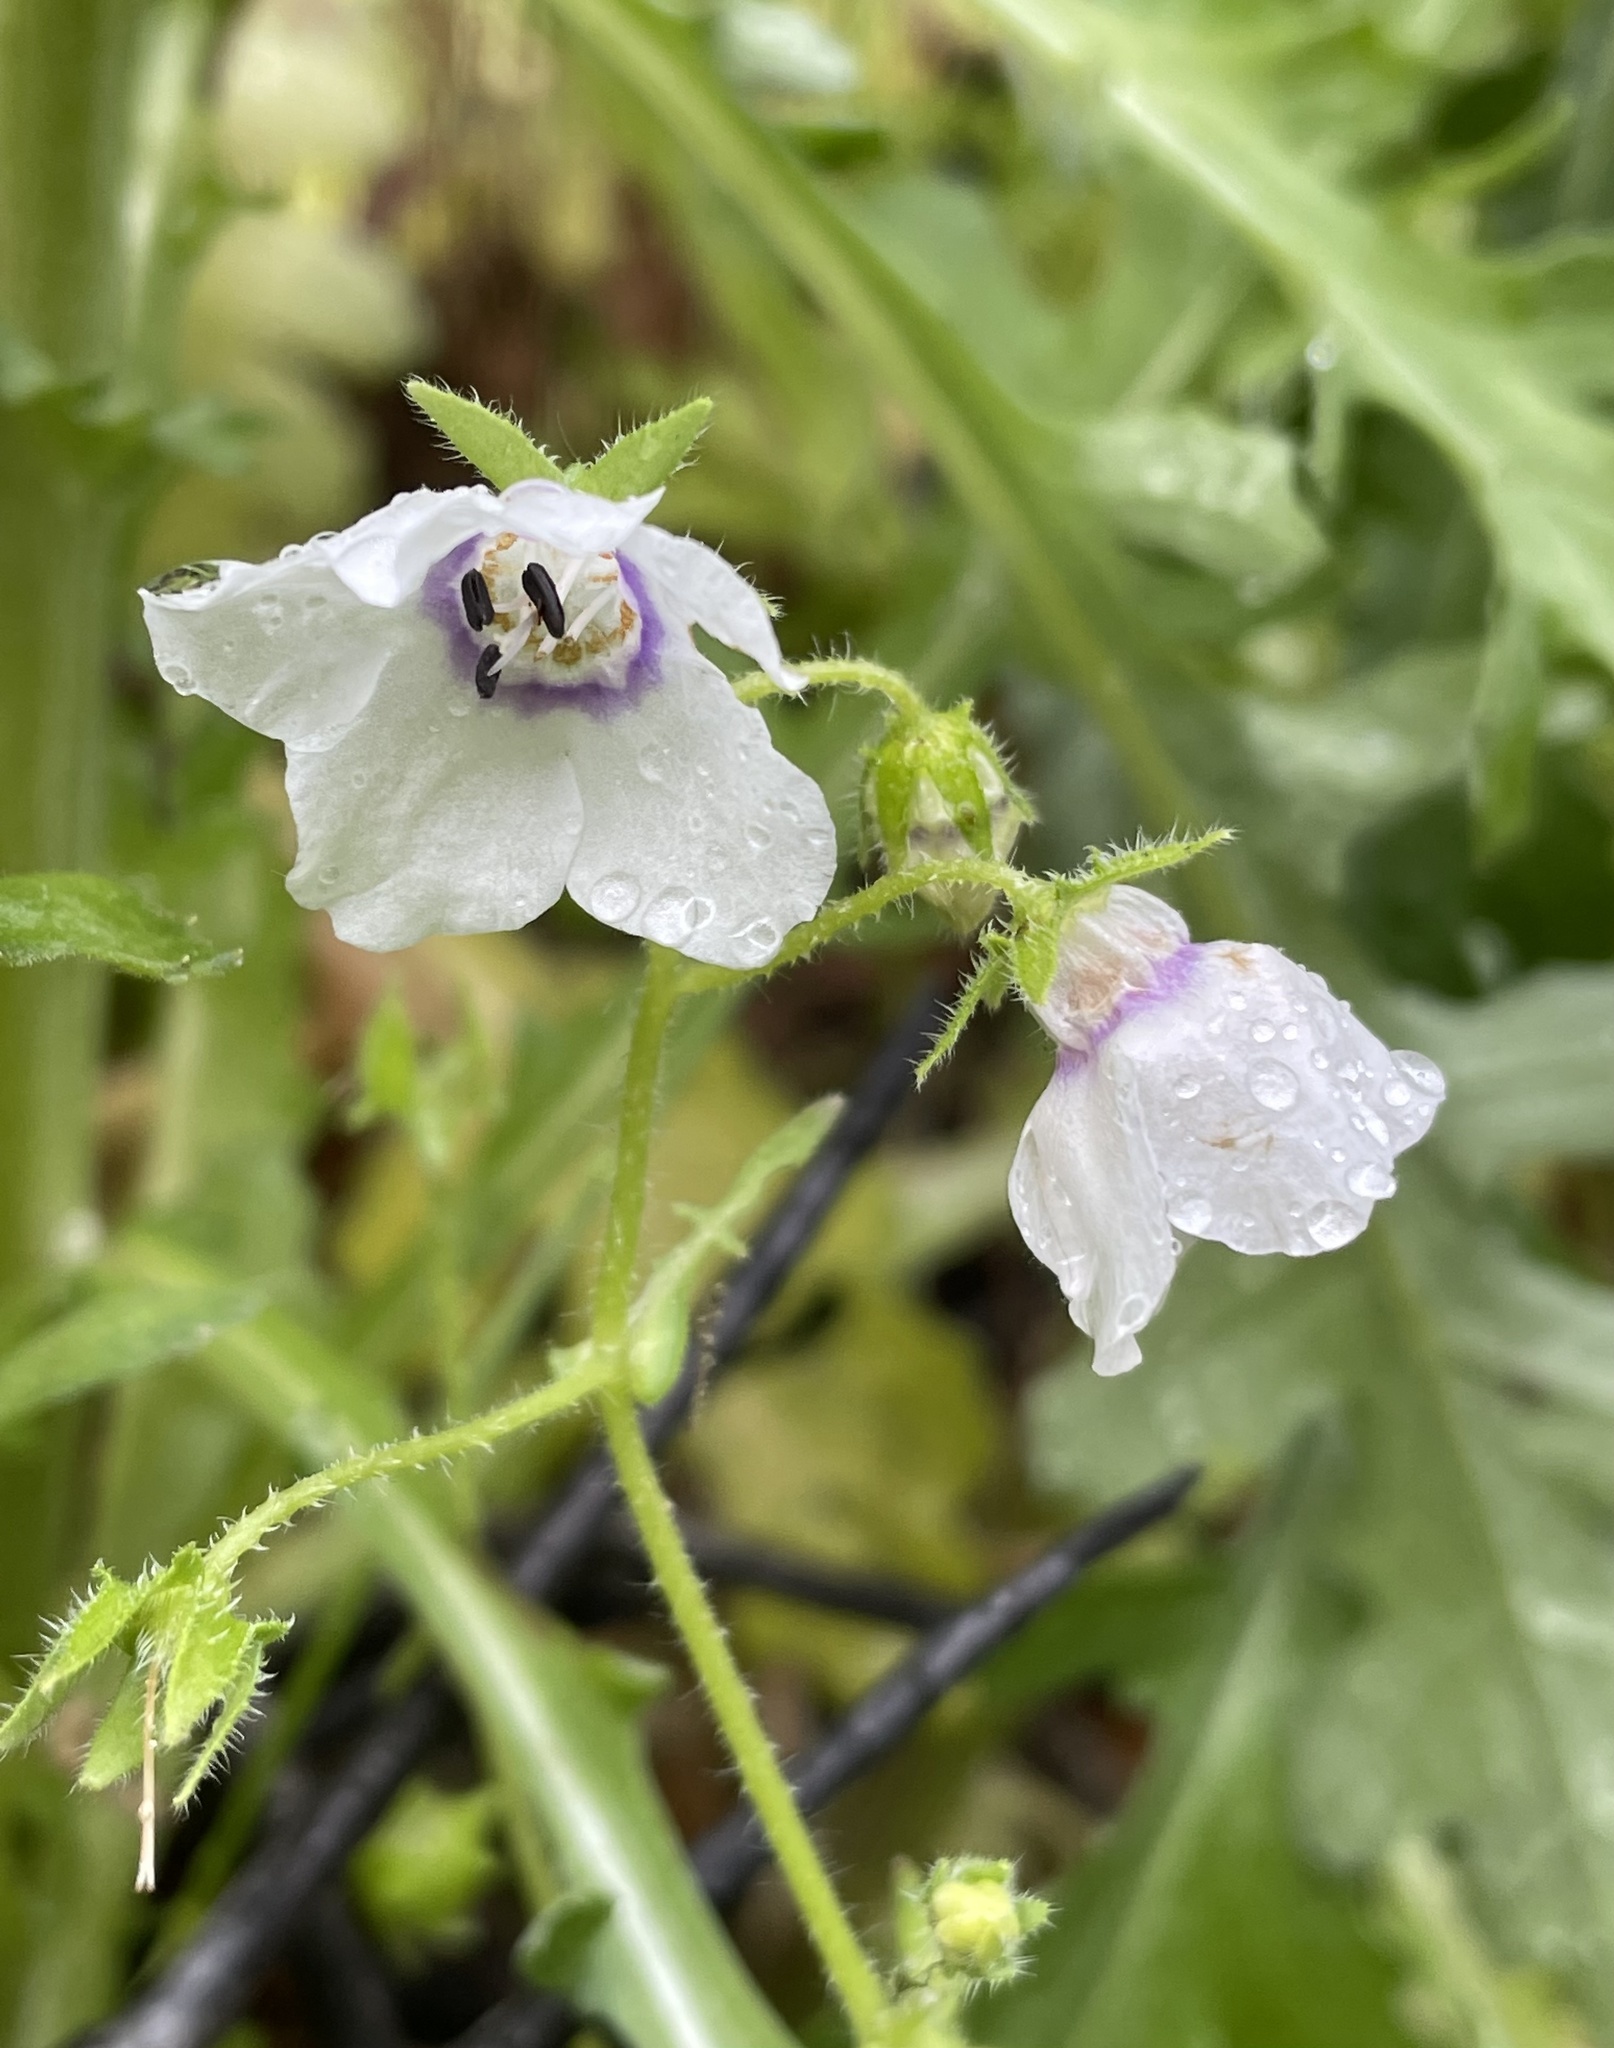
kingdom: Plantae
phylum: Tracheophyta
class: Magnoliopsida
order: Boraginales
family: Hydrophyllaceae
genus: Pholistoma
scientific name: Pholistoma auritum
